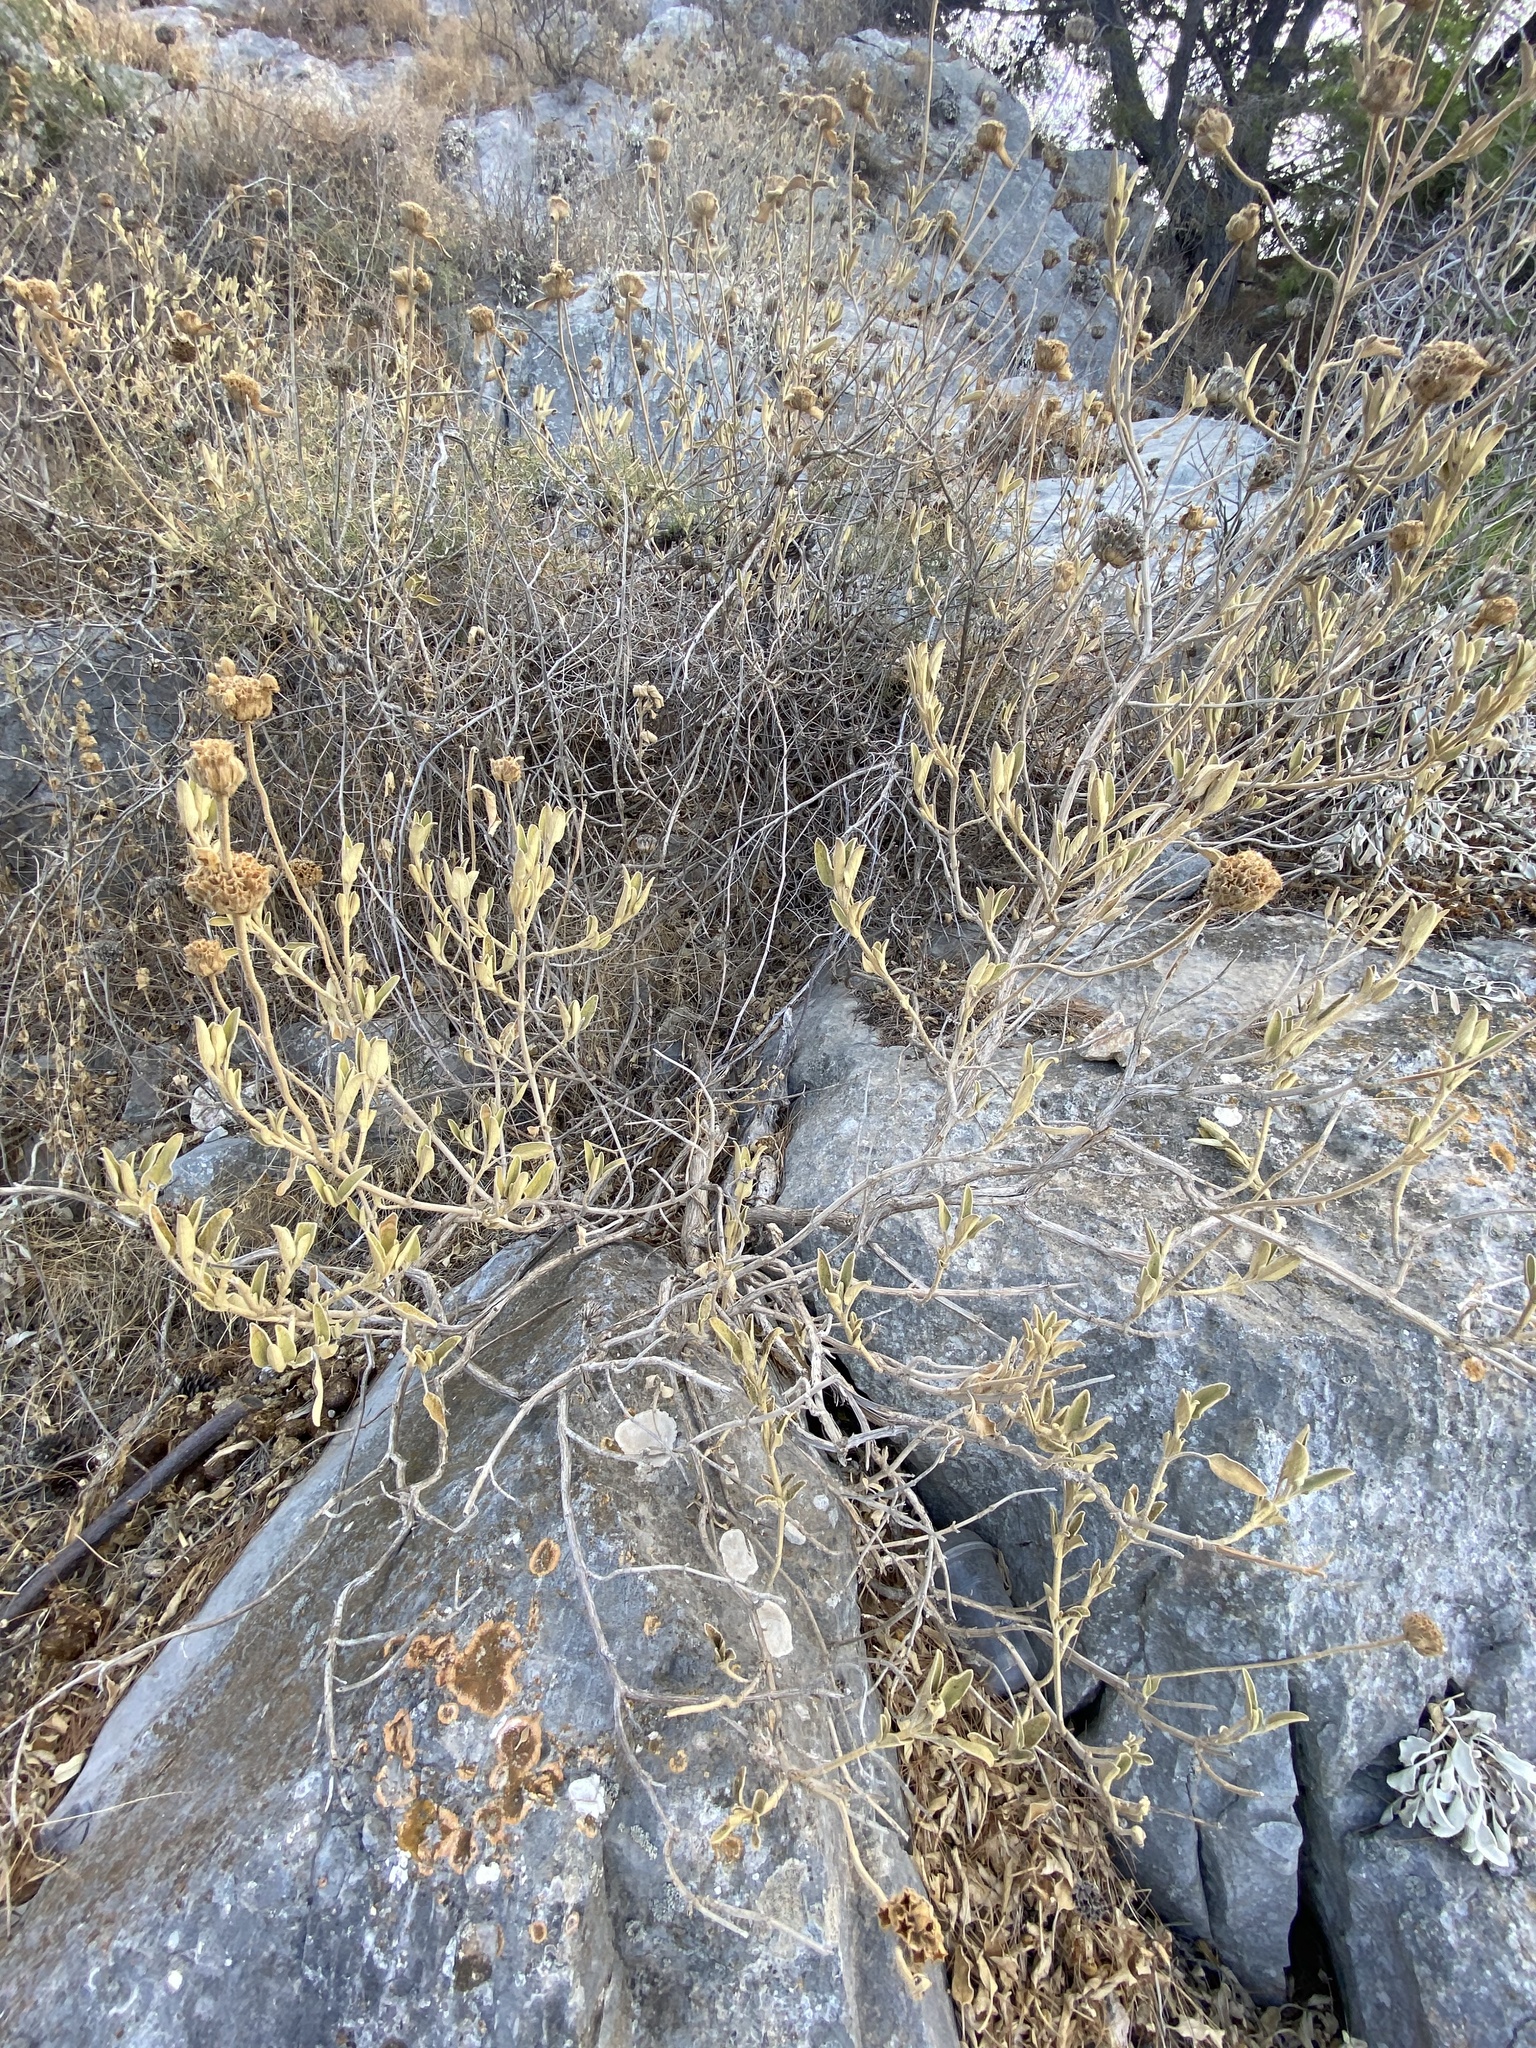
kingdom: Plantae
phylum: Tracheophyta
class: Magnoliopsida
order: Lamiales
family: Lamiaceae
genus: Phlomis
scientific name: Phlomis fruticosa
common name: Jerusalem sage
